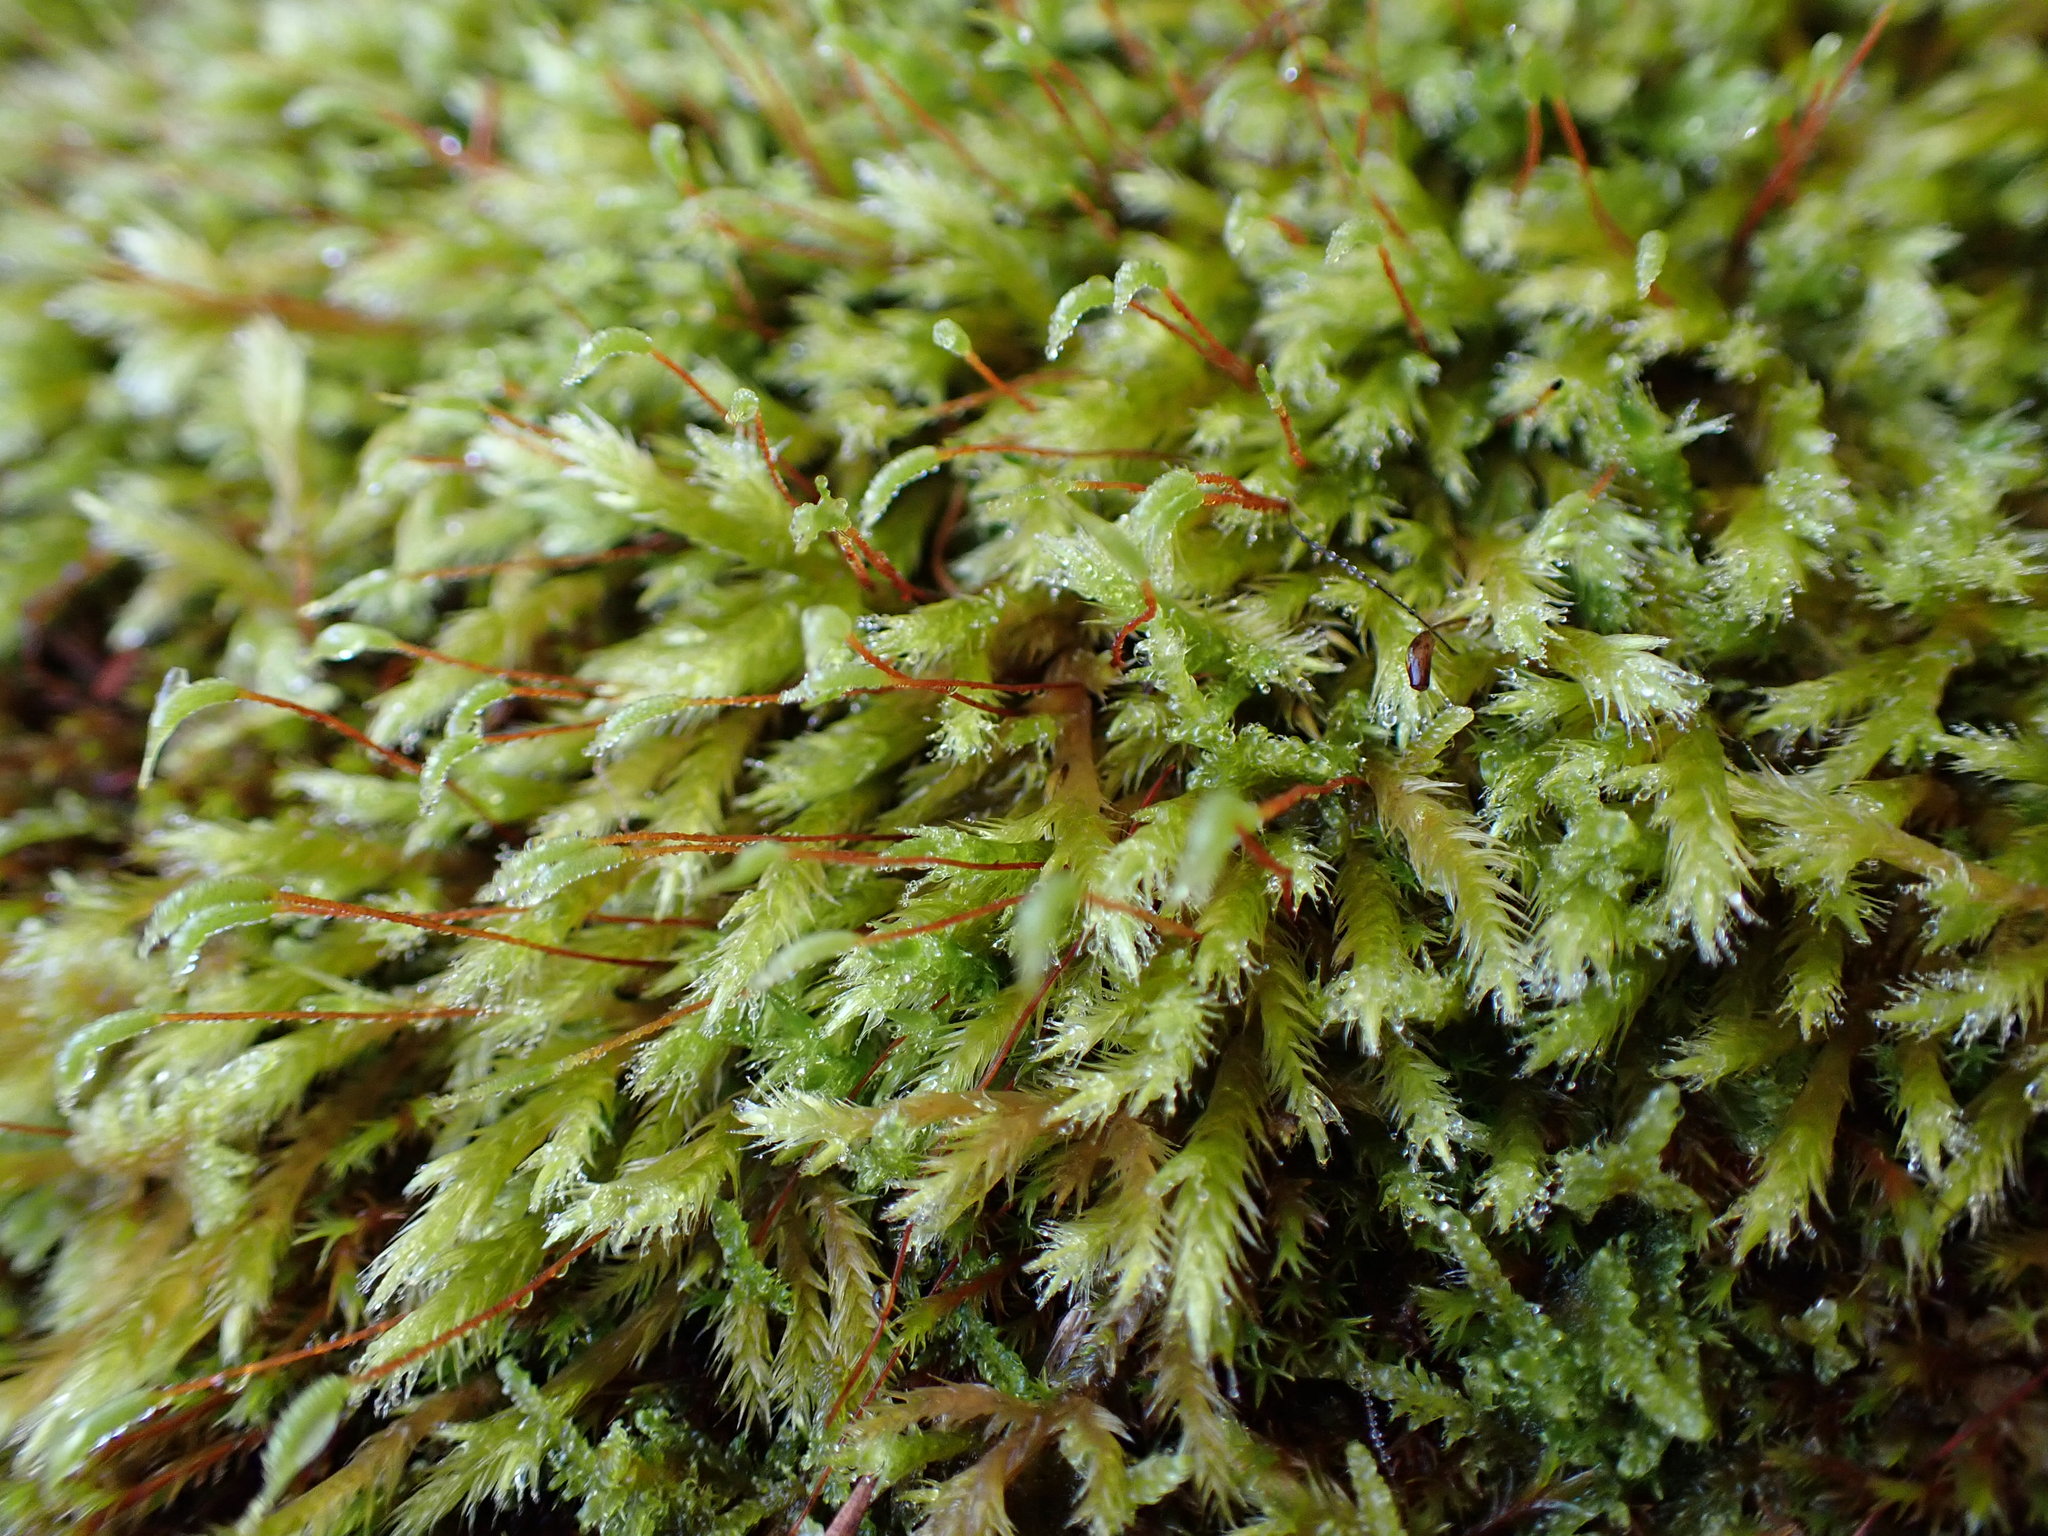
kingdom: Plantae
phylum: Bryophyta
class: Bryopsida
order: Hypnales
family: Brachytheciaceae
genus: Homalothecium
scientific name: Homalothecium fulgescens
